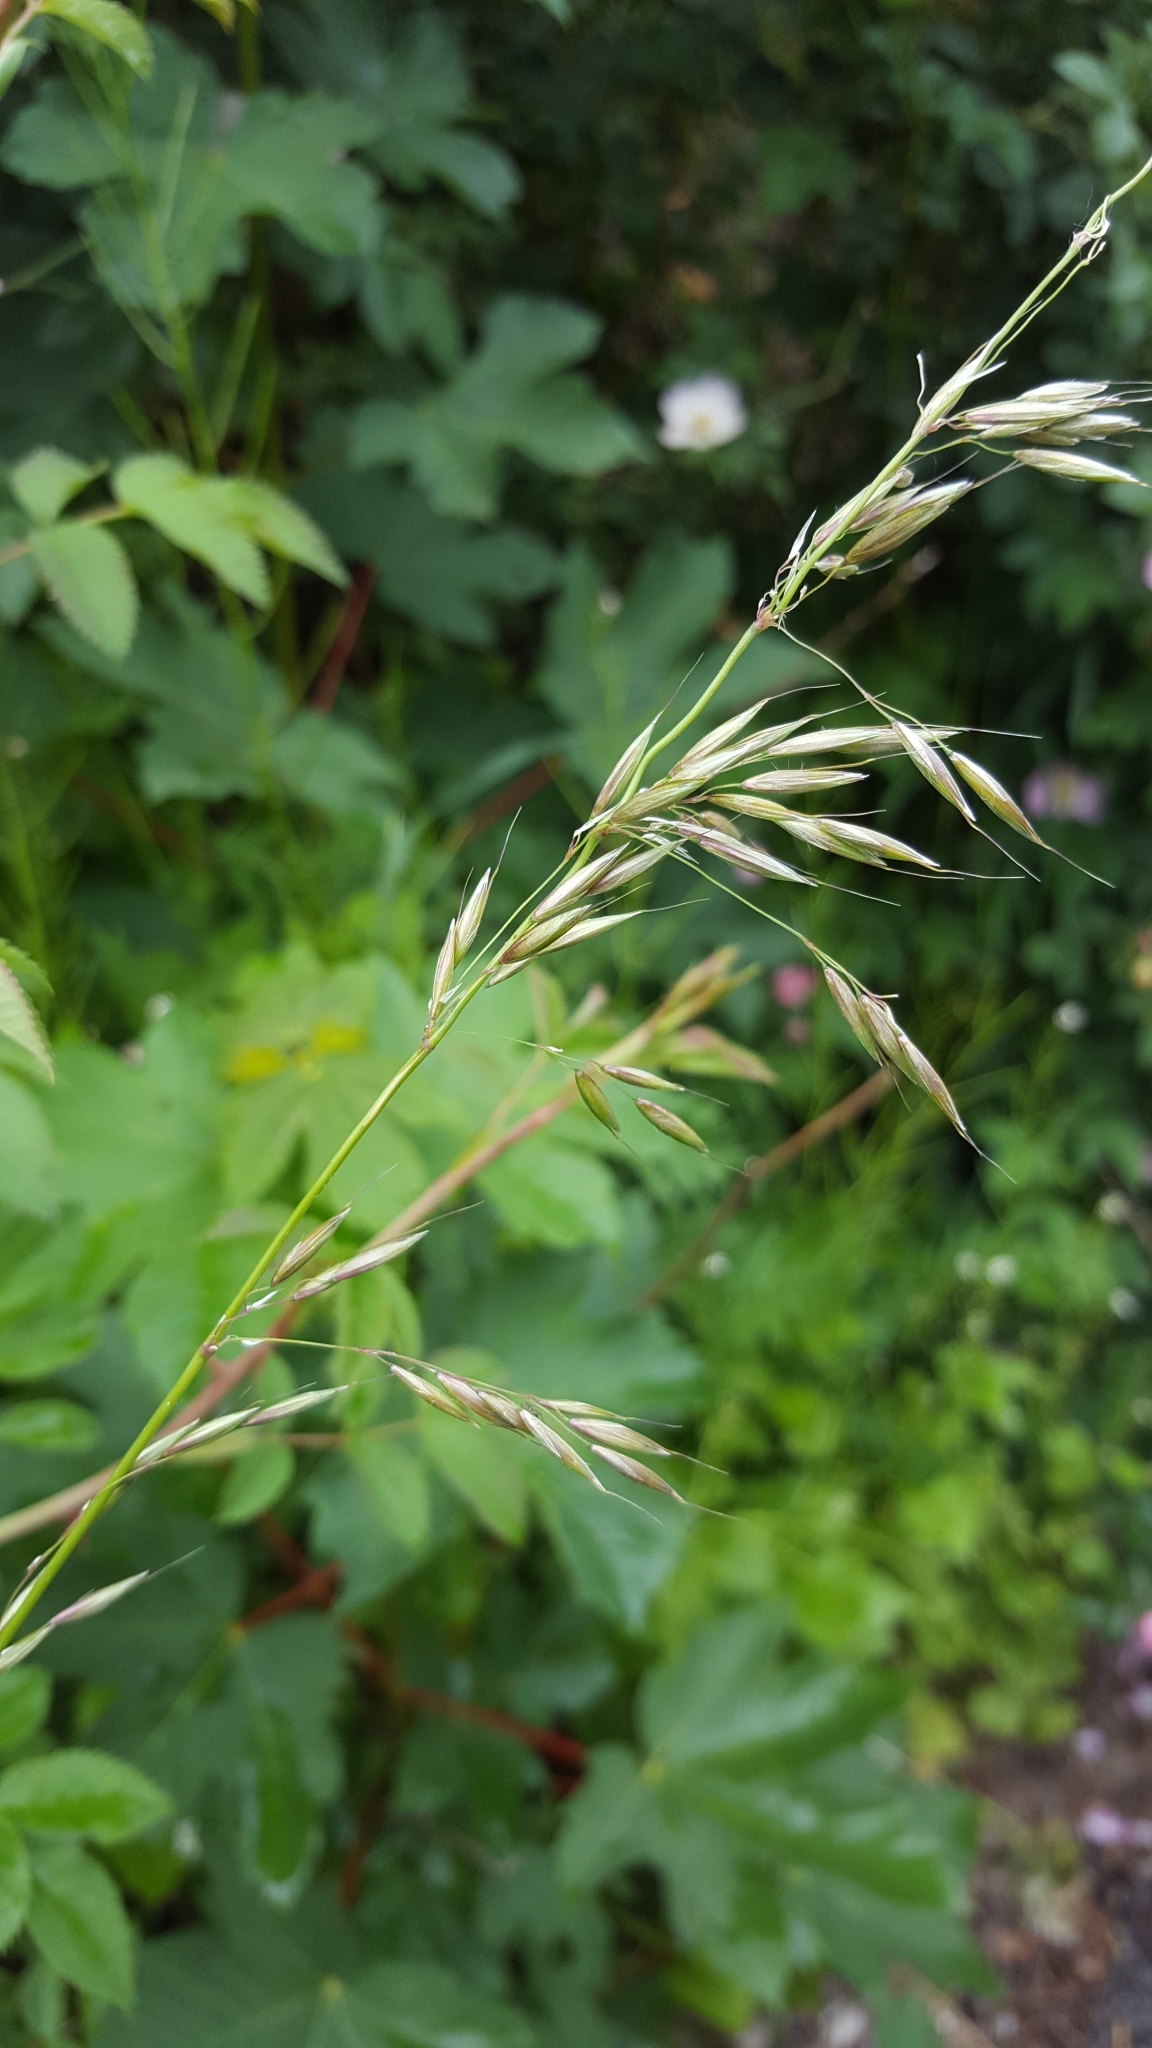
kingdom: Plantae
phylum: Tracheophyta
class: Liliopsida
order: Poales
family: Poaceae
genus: Arrhenatherum
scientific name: Arrhenatherum elatius
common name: Tall oatgrass
